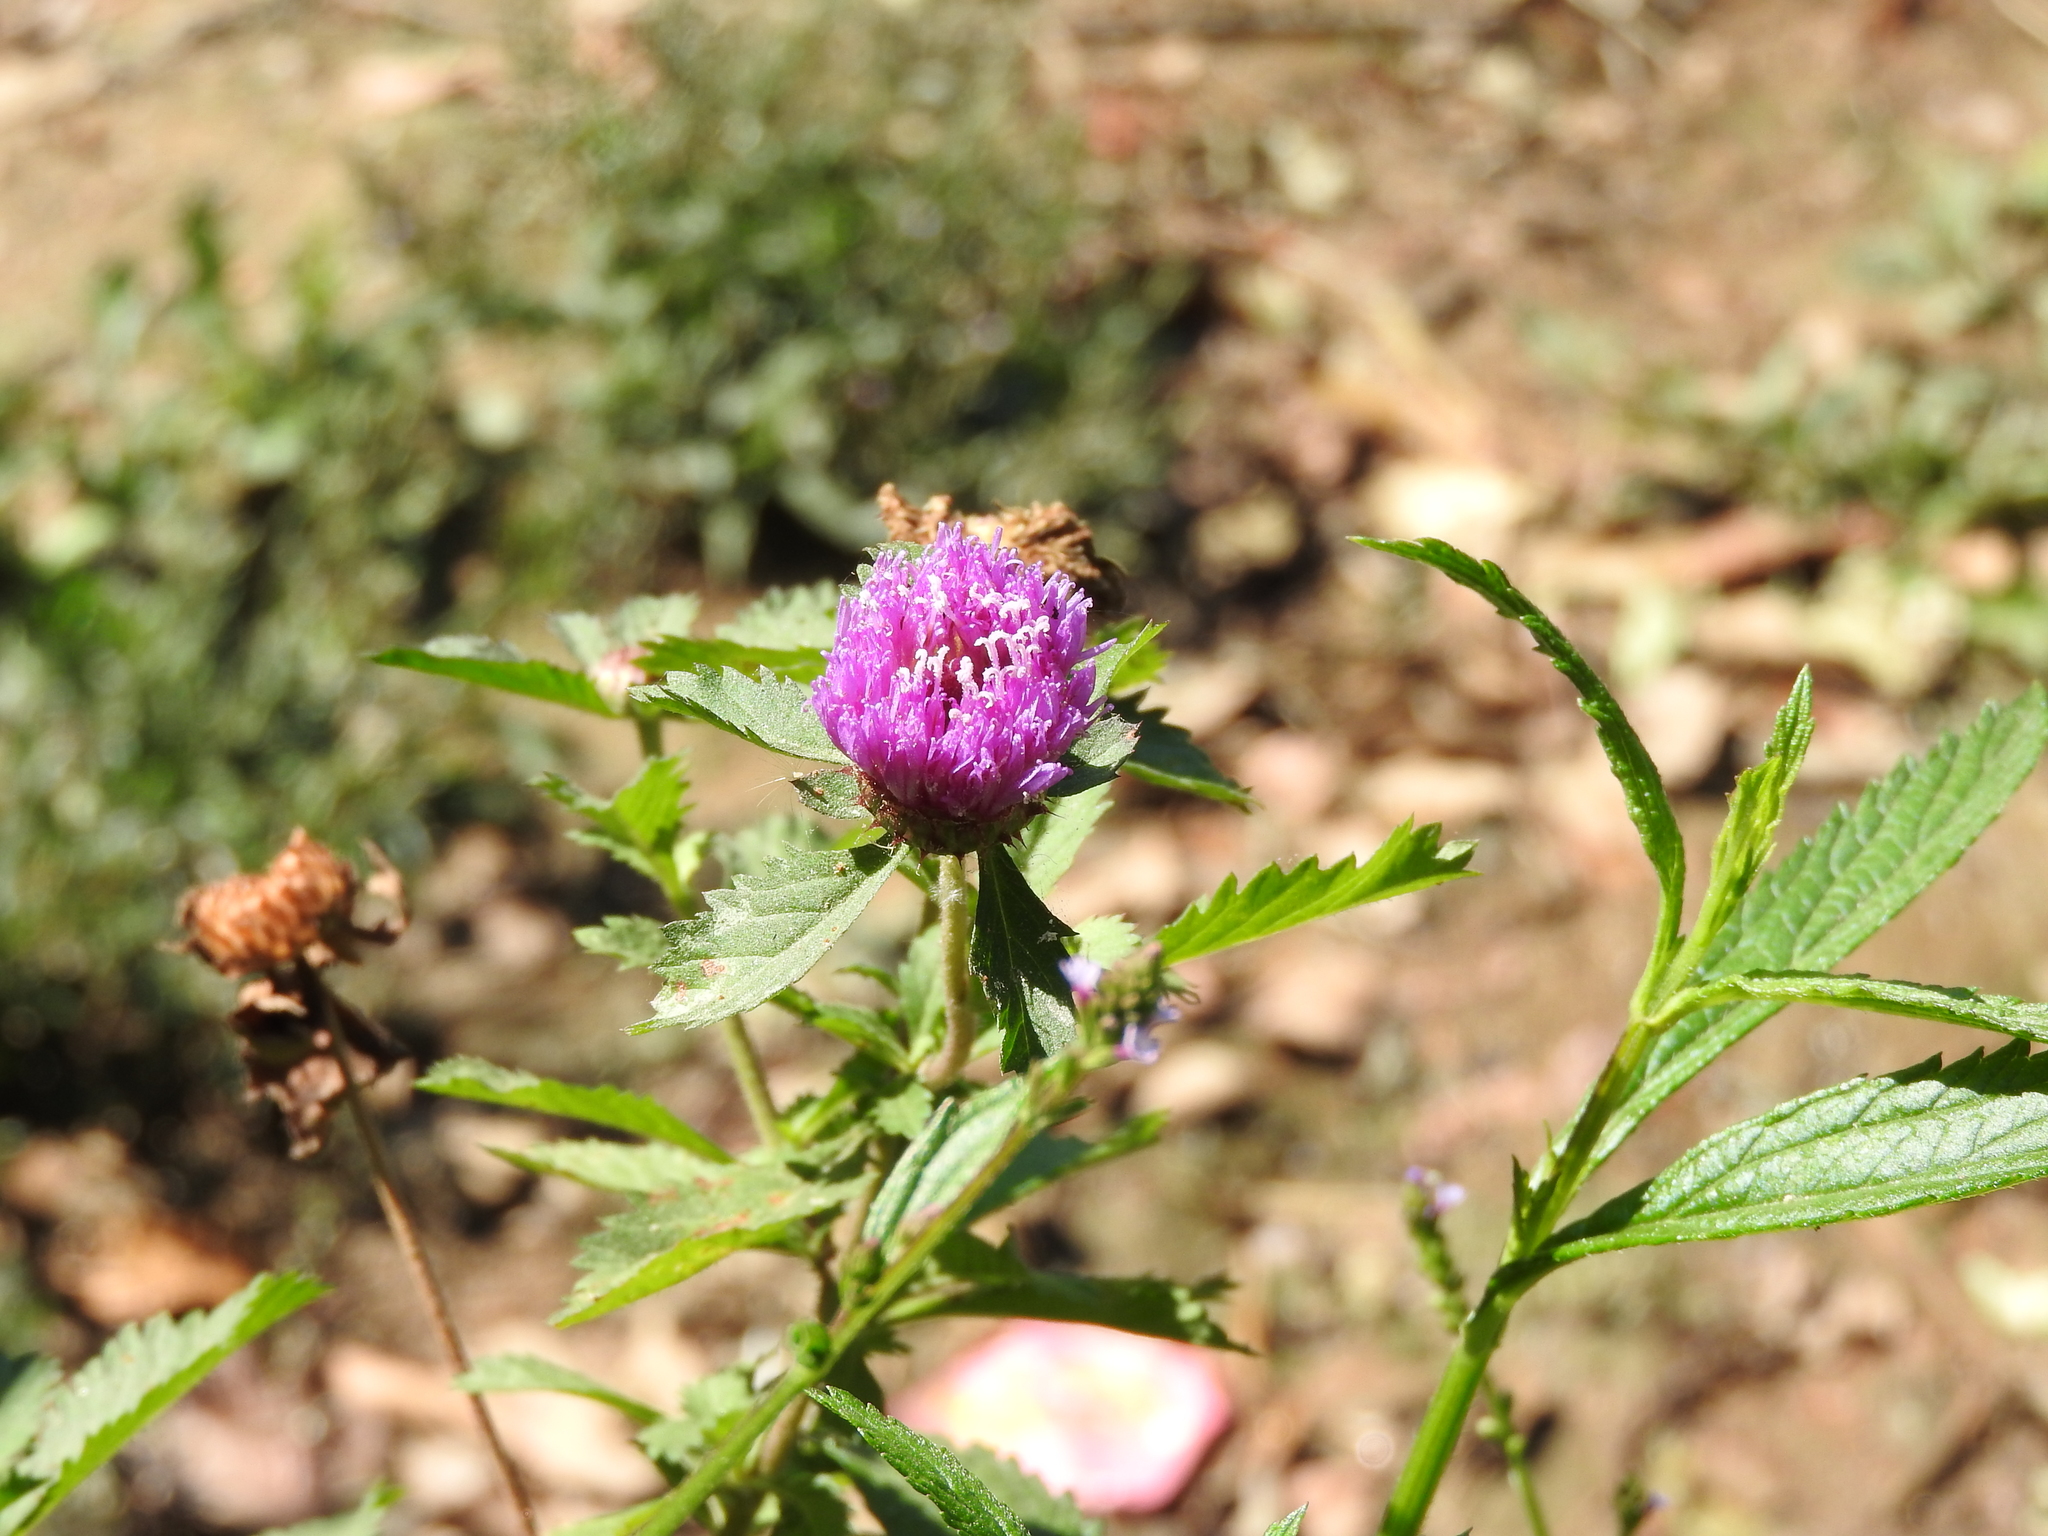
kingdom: Plantae
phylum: Tracheophyta
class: Magnoliopsida
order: Asterales
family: Asteraceae
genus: Centratherum
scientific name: Centratherum punctatum
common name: Larkdaisy
